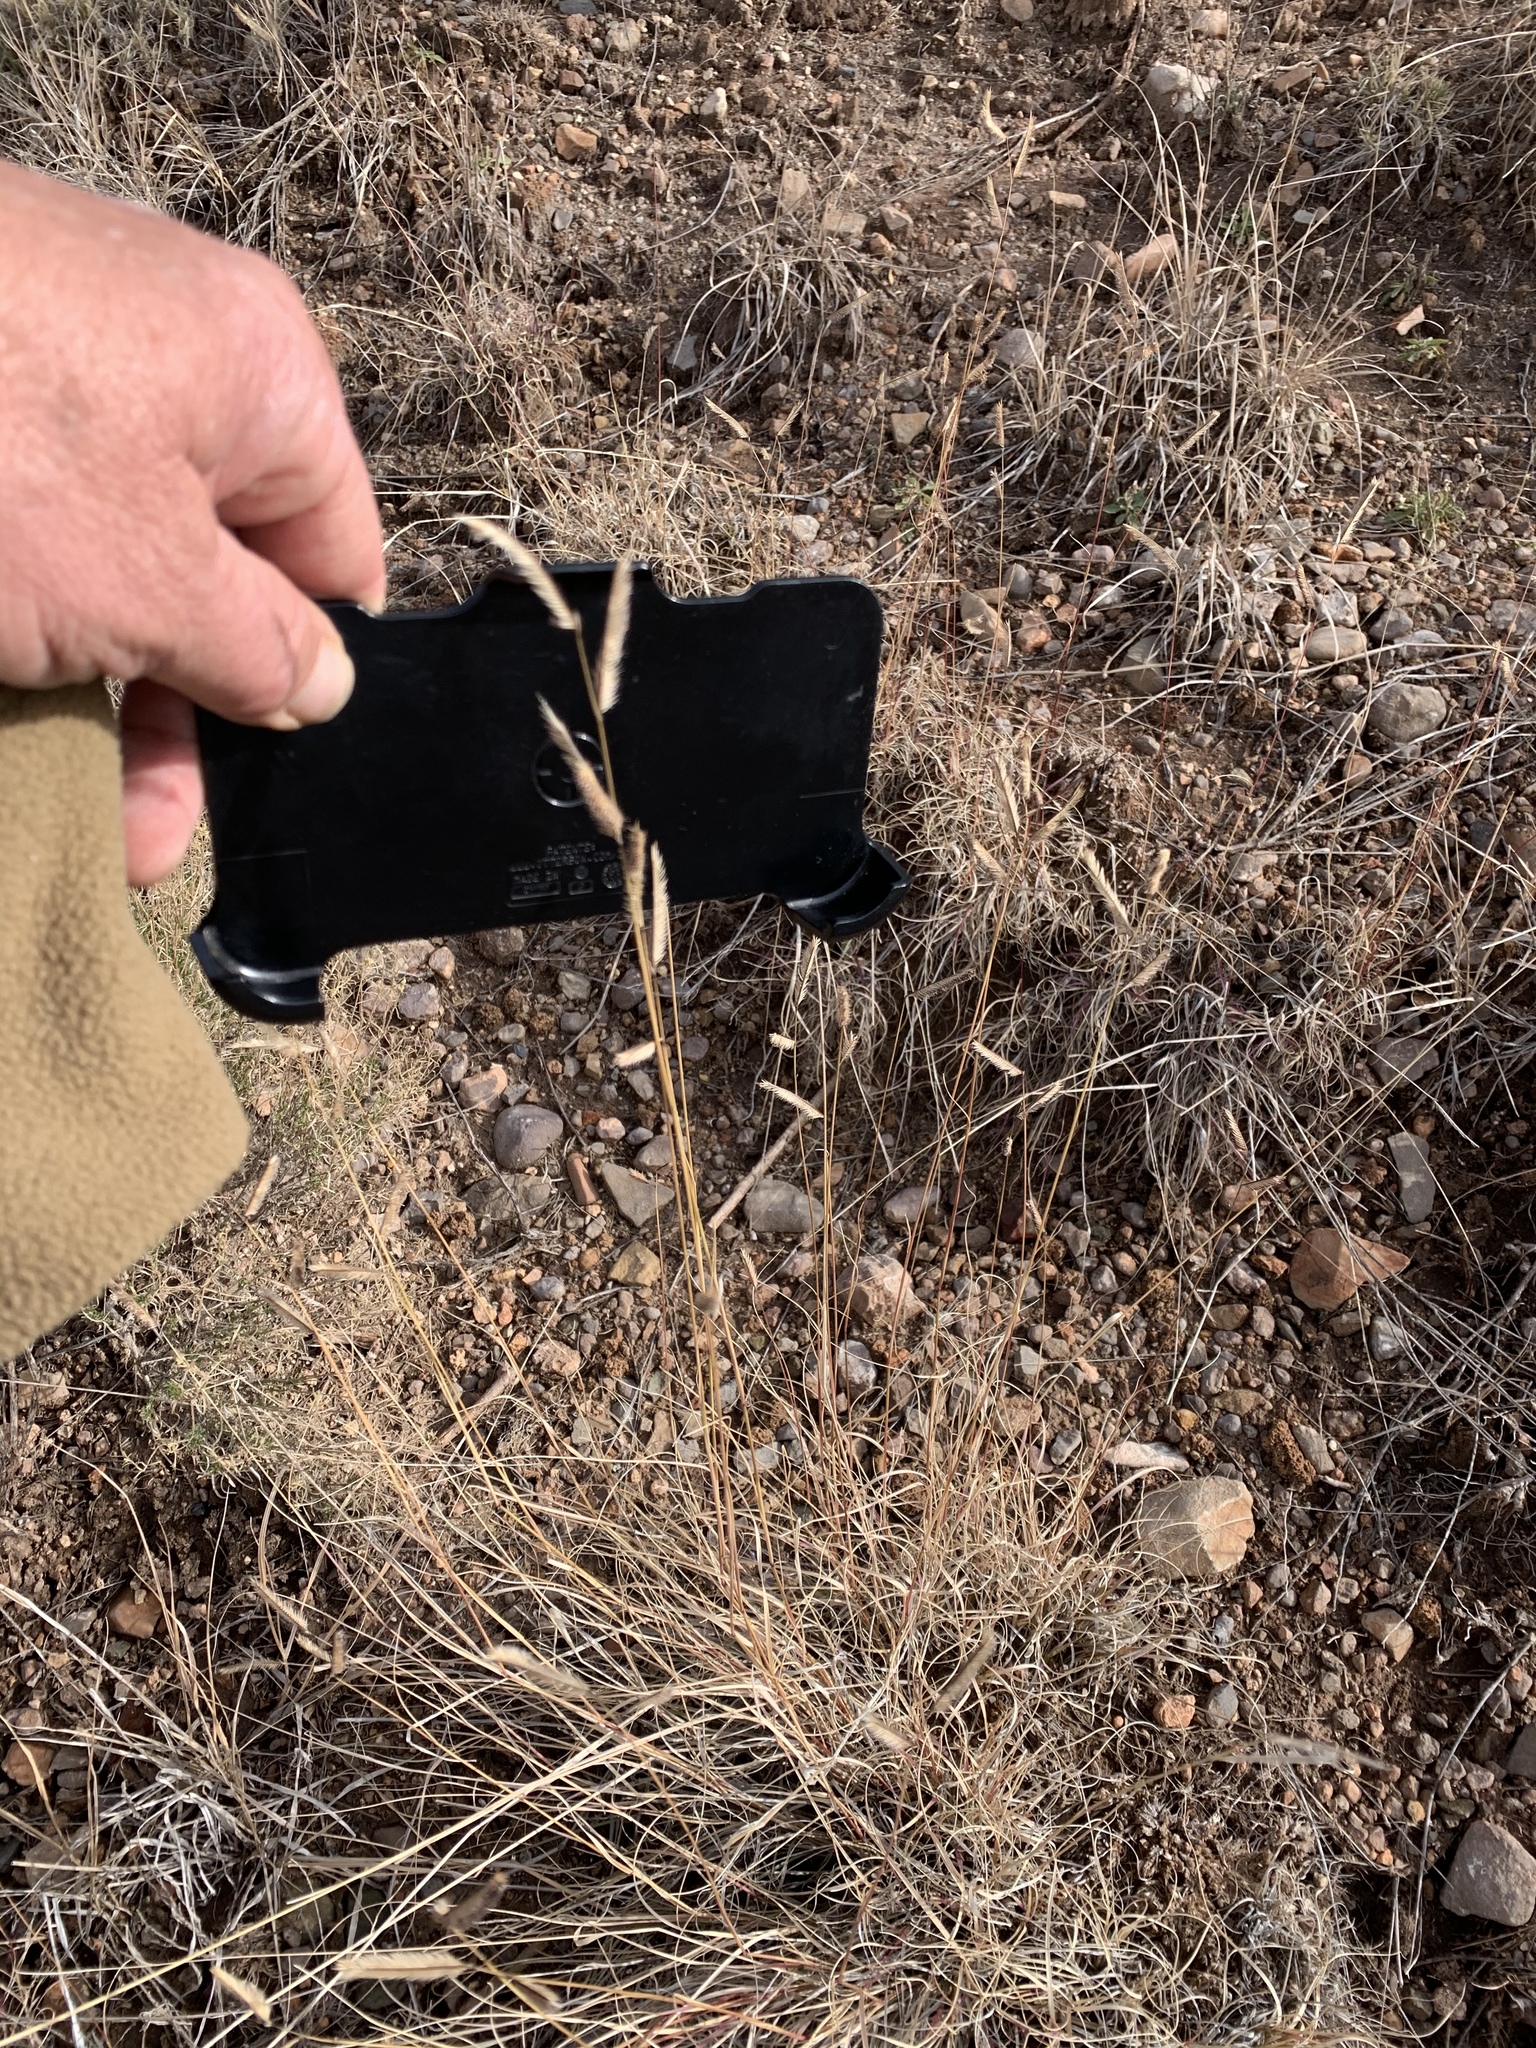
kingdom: Plantae
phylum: Tracheophyta
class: Liliopsida
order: Poales
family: Poaceae
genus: Bouteloua
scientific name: Bouteloua gracilis
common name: Blue grama
